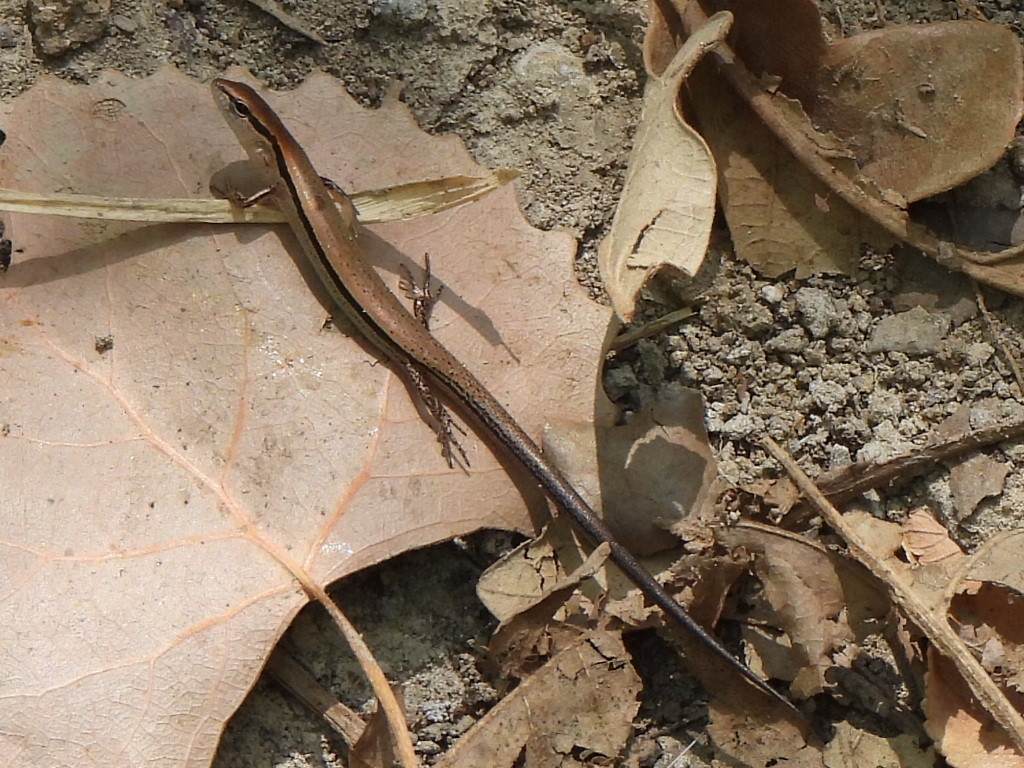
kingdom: Animalia
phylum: Chordata
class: Squamata
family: Scincidae
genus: Scincella
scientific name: Scincella lateralis
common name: Ground skink
